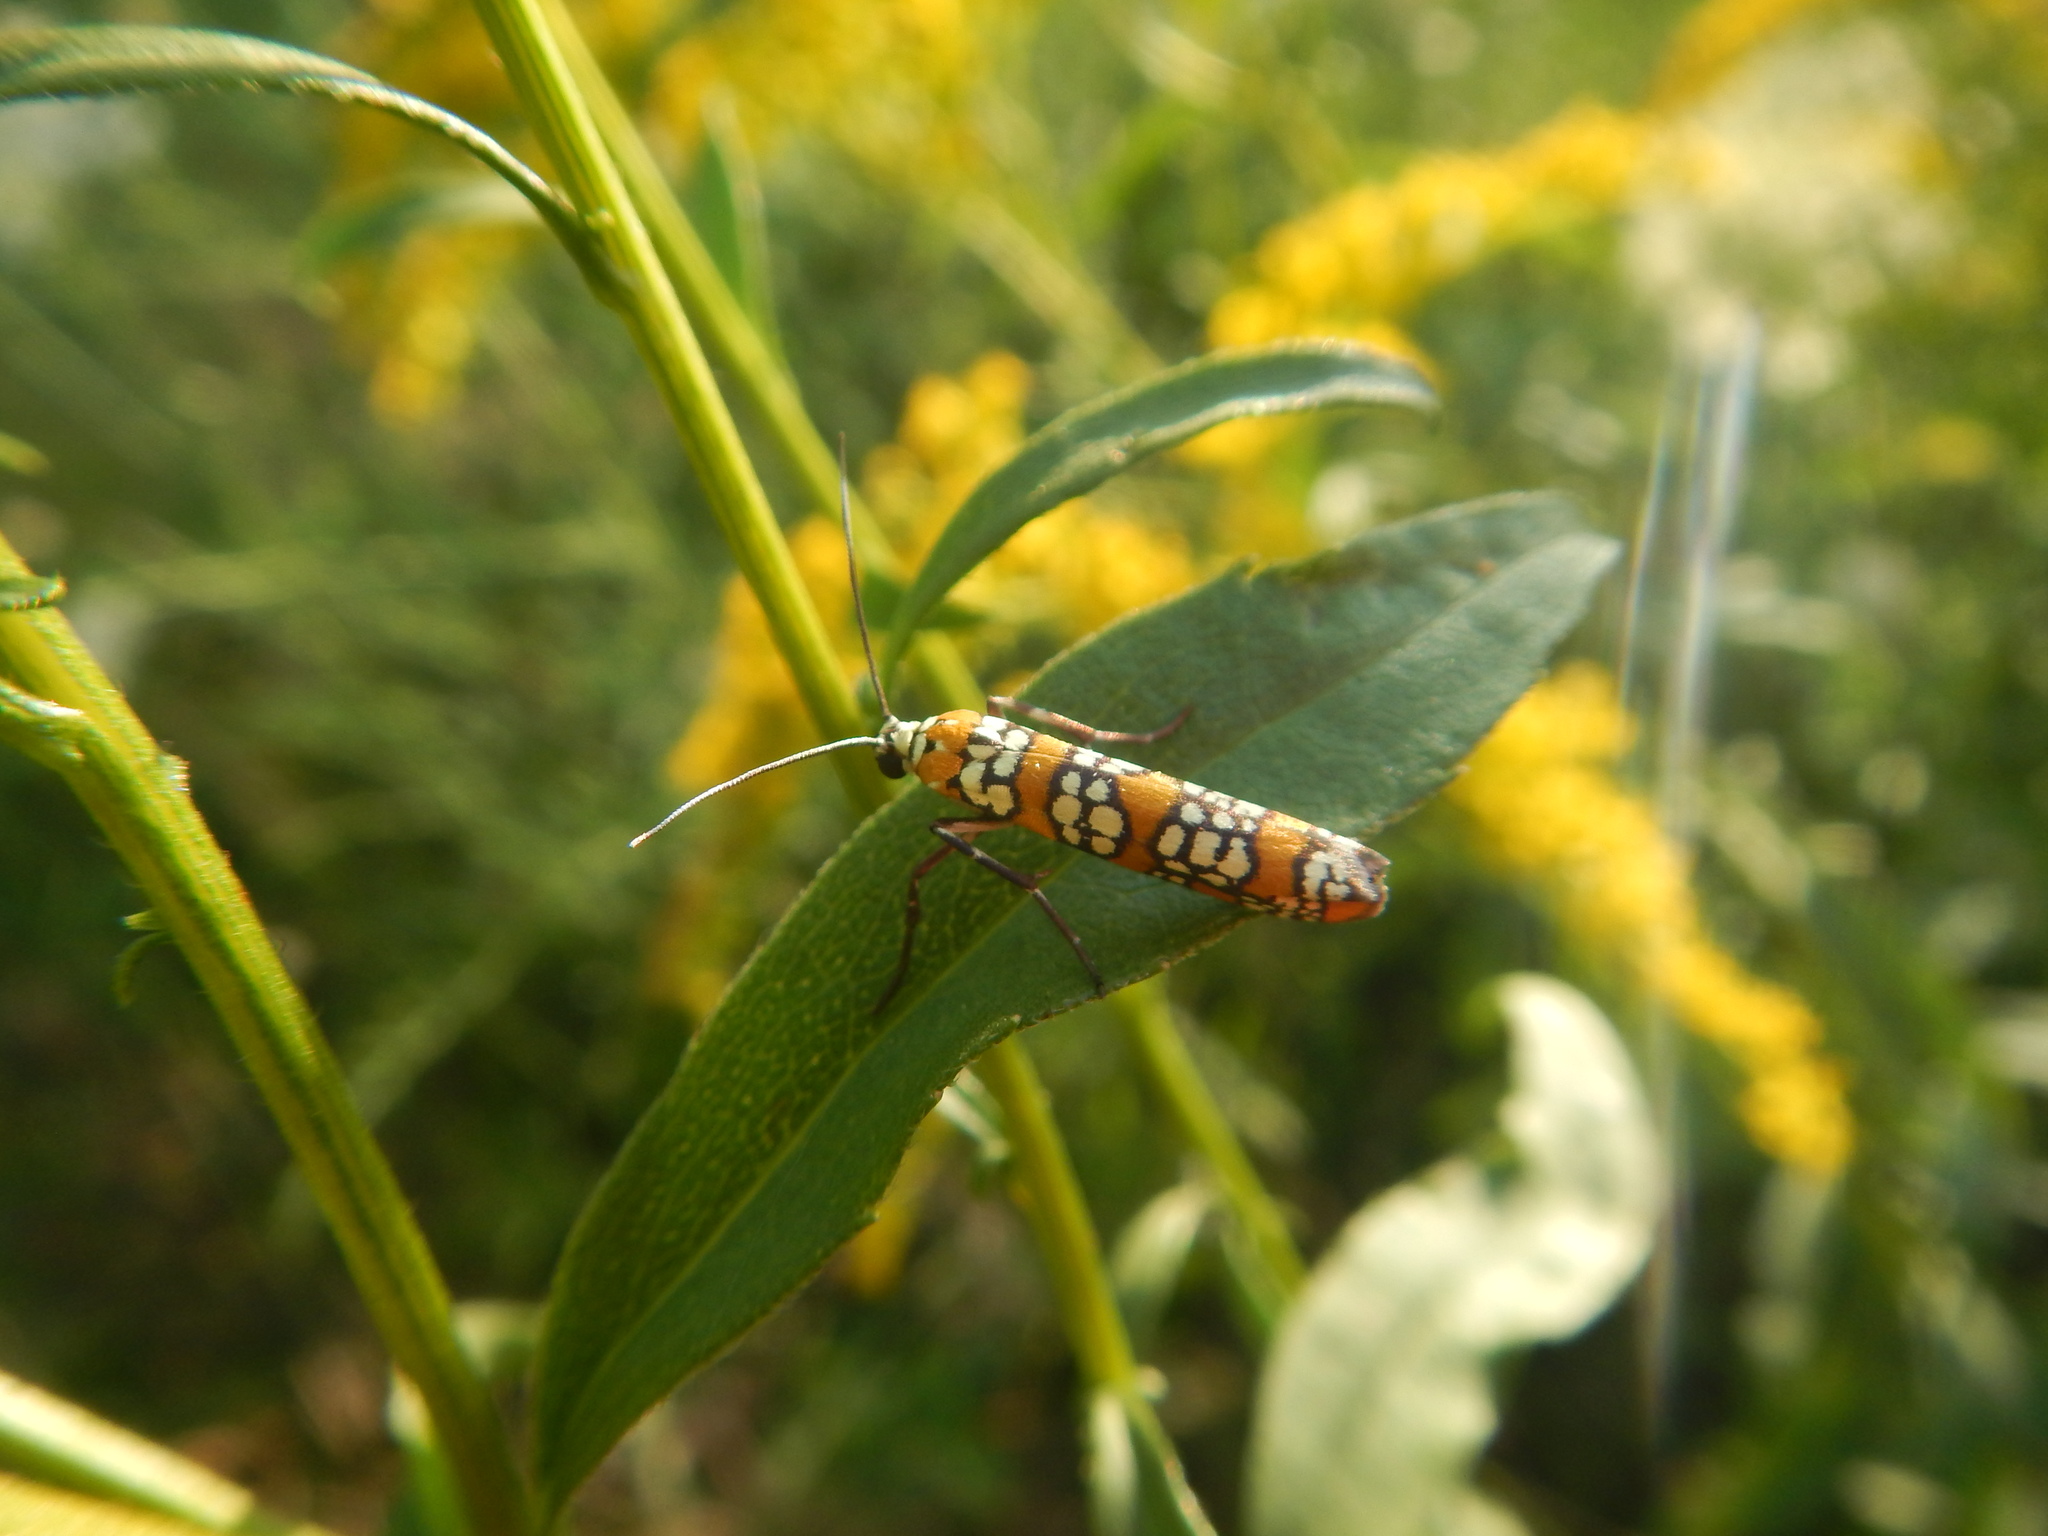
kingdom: Animalia
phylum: Arthropoda
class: Insecta
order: Lepidoptera
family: Attevidae
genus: Atteva
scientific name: Atteva punctella
